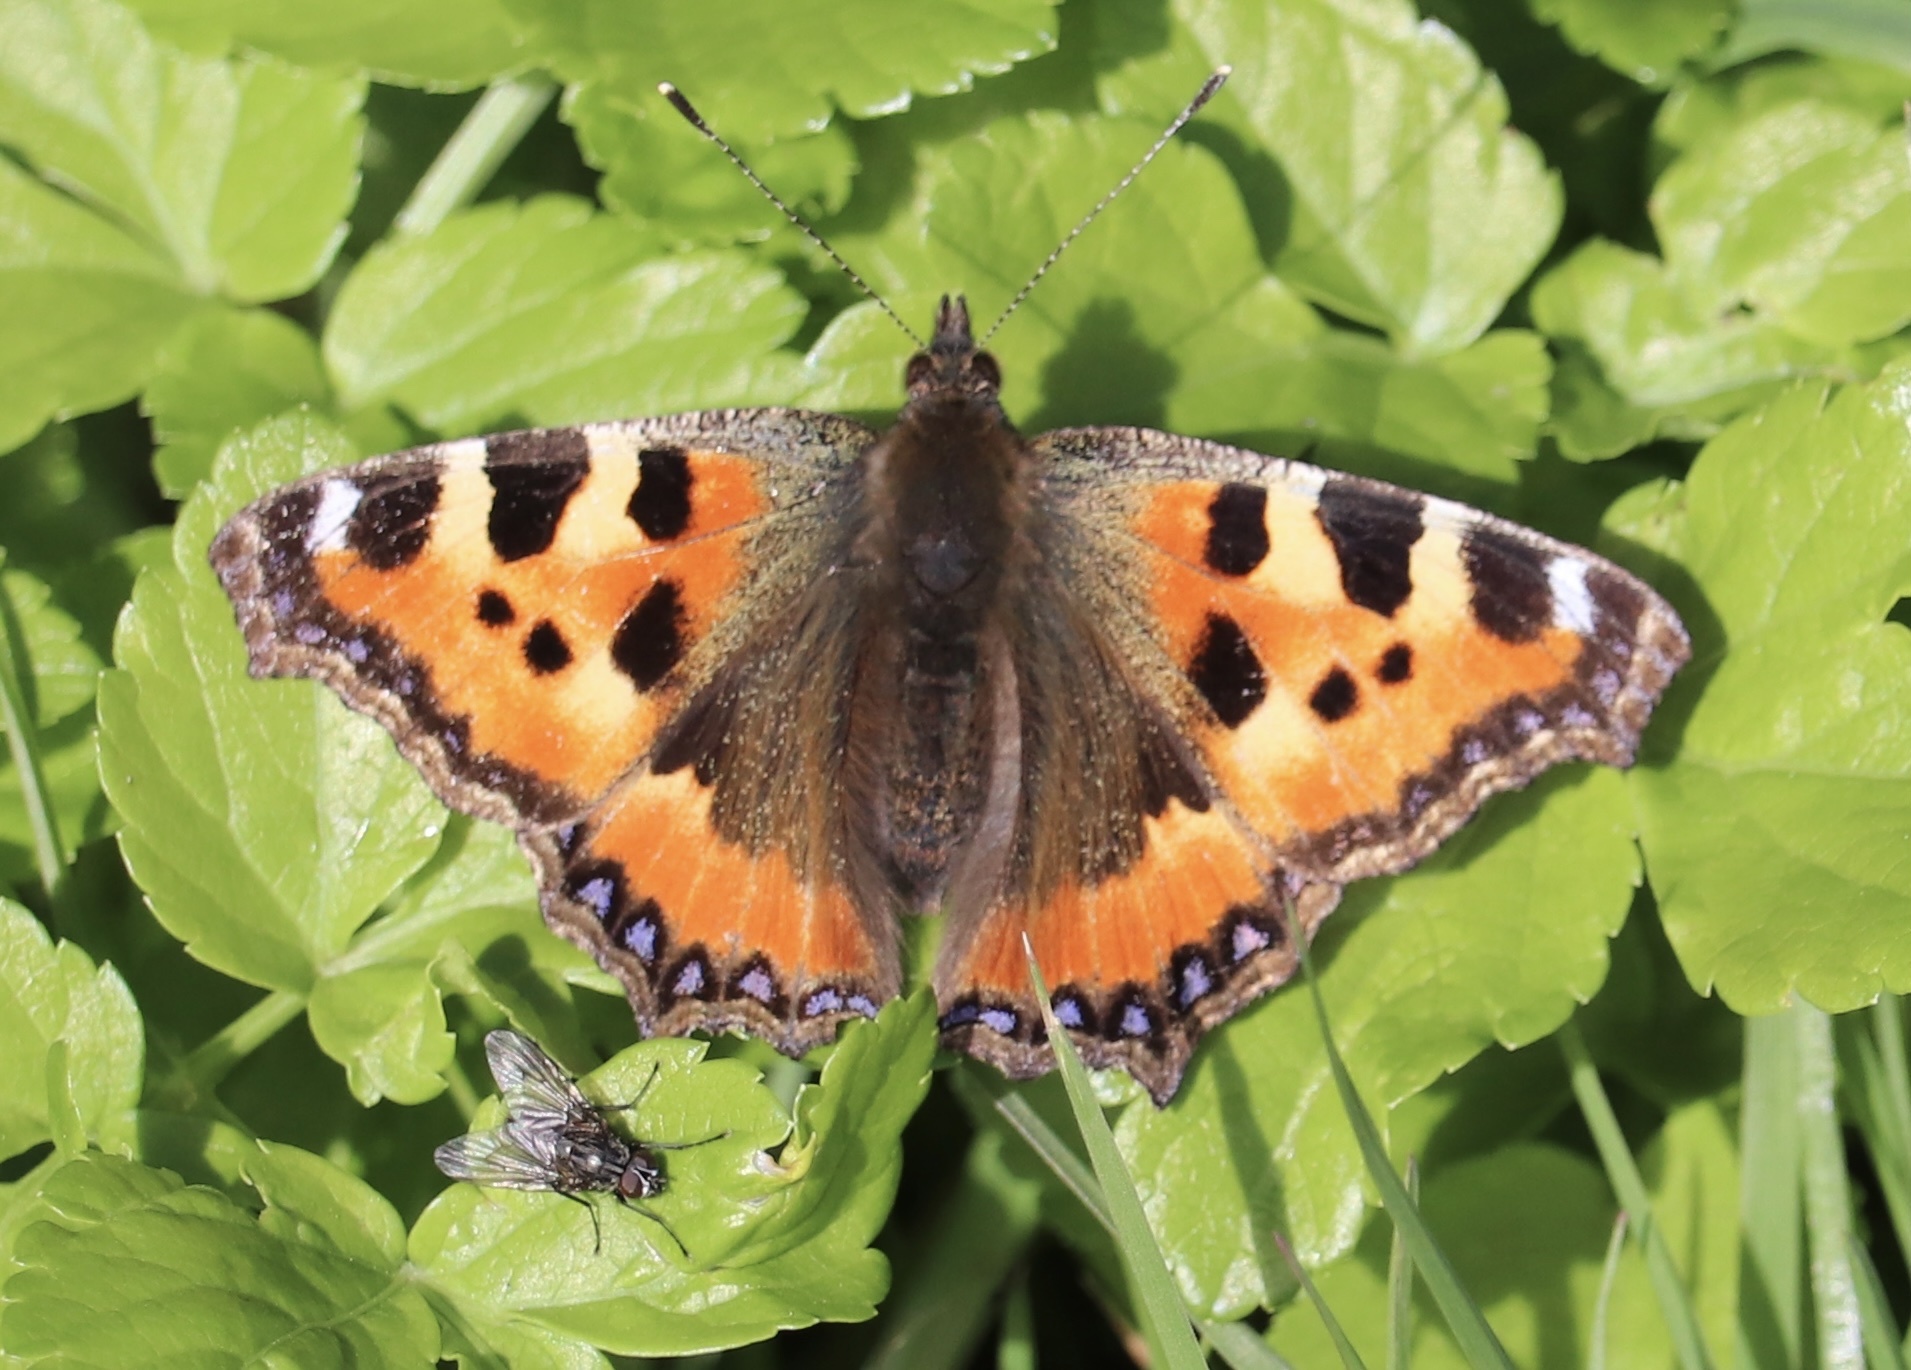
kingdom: Animalia
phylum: Arthropoda
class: Insecta
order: Lepidoptera
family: Nymphalidae
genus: Aglais
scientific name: Aglais urticae
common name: Small tortoiseshell
